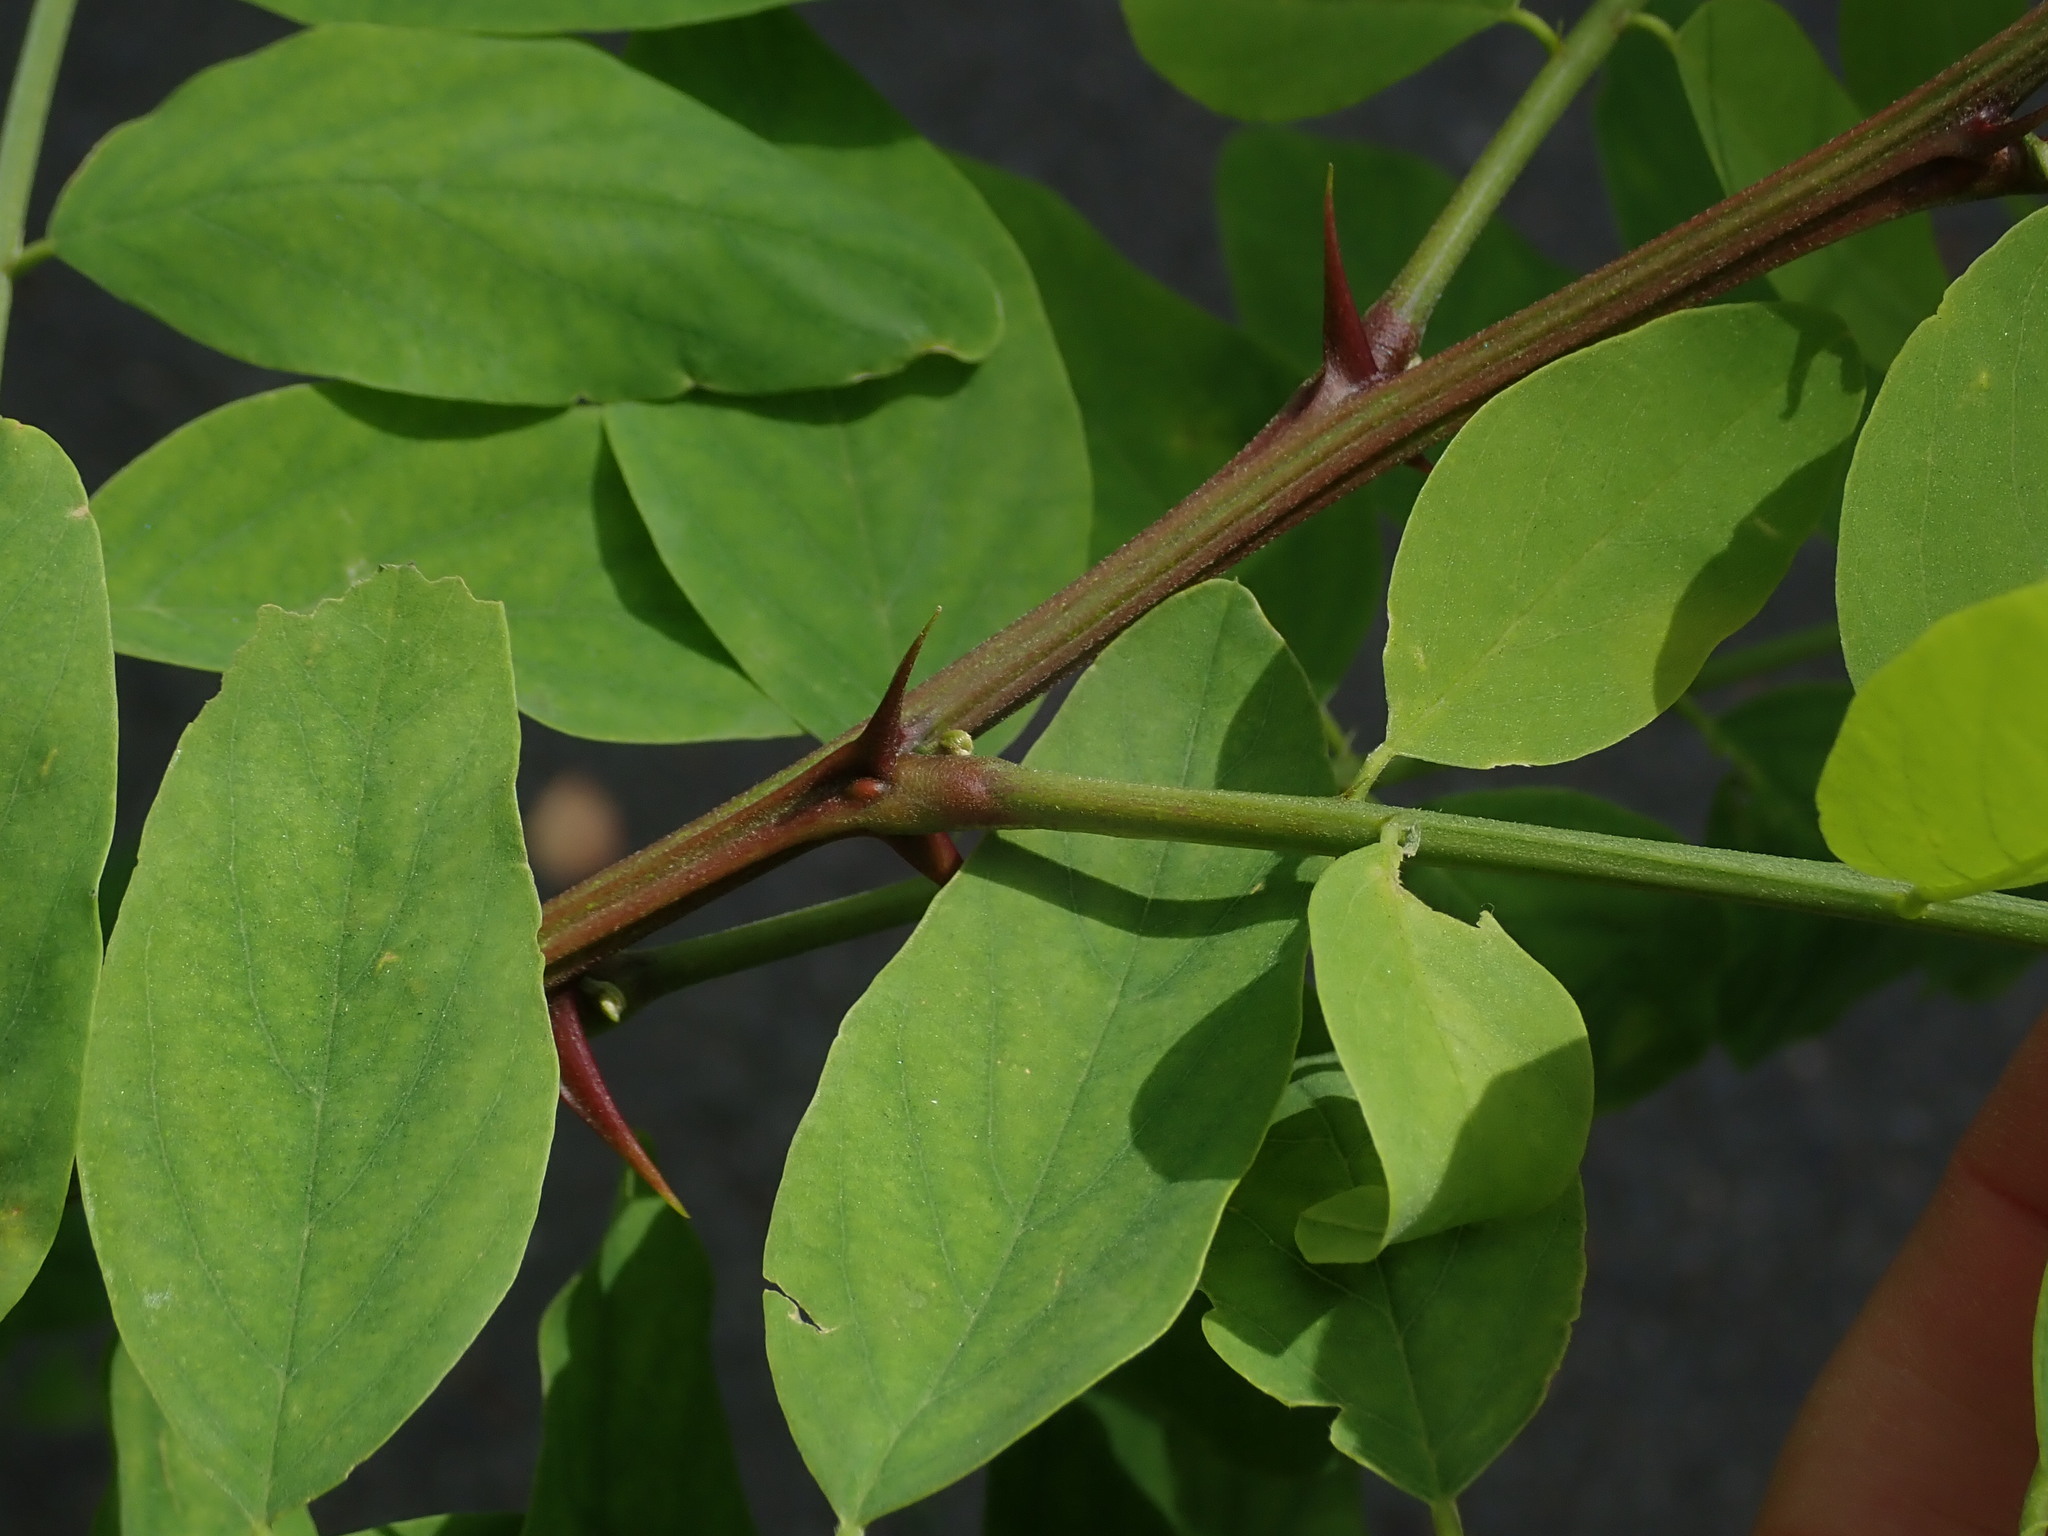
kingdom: Plantae
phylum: Tracheophyta
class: Magnoliopsida
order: Fabales
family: Fabaceae
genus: Robinia
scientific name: Robinia pseudoacacia
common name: Black locust
